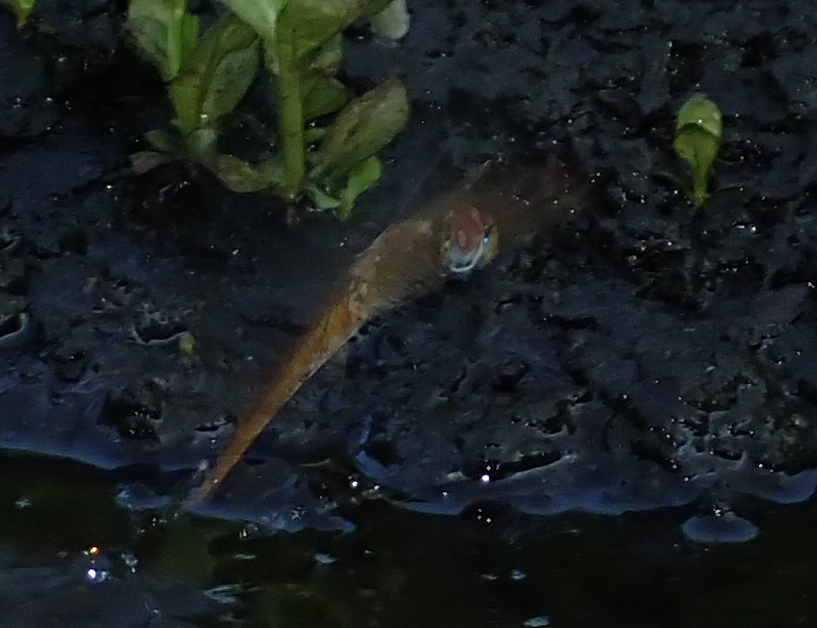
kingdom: Animalia
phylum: Arthropoda
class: Insecta
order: Odonata
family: Libellulidae
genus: Pantala
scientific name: Pantala flavescens
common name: Wandering glider
